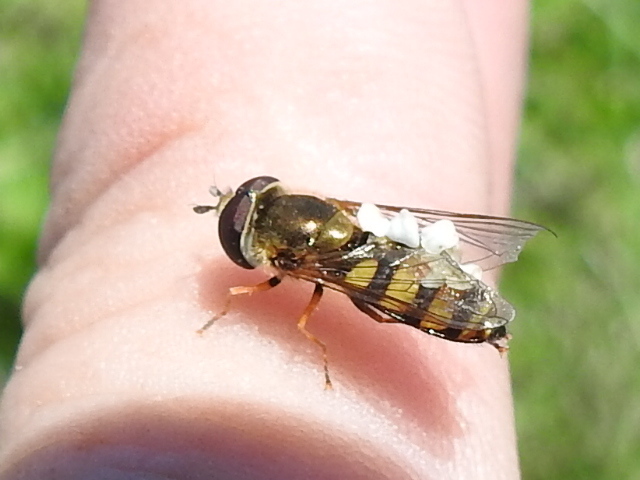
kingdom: Animalia
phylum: Arthropoda
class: Insecta
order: Diptera
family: Syrphidae
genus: Eupeodes
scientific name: Eupeodes
